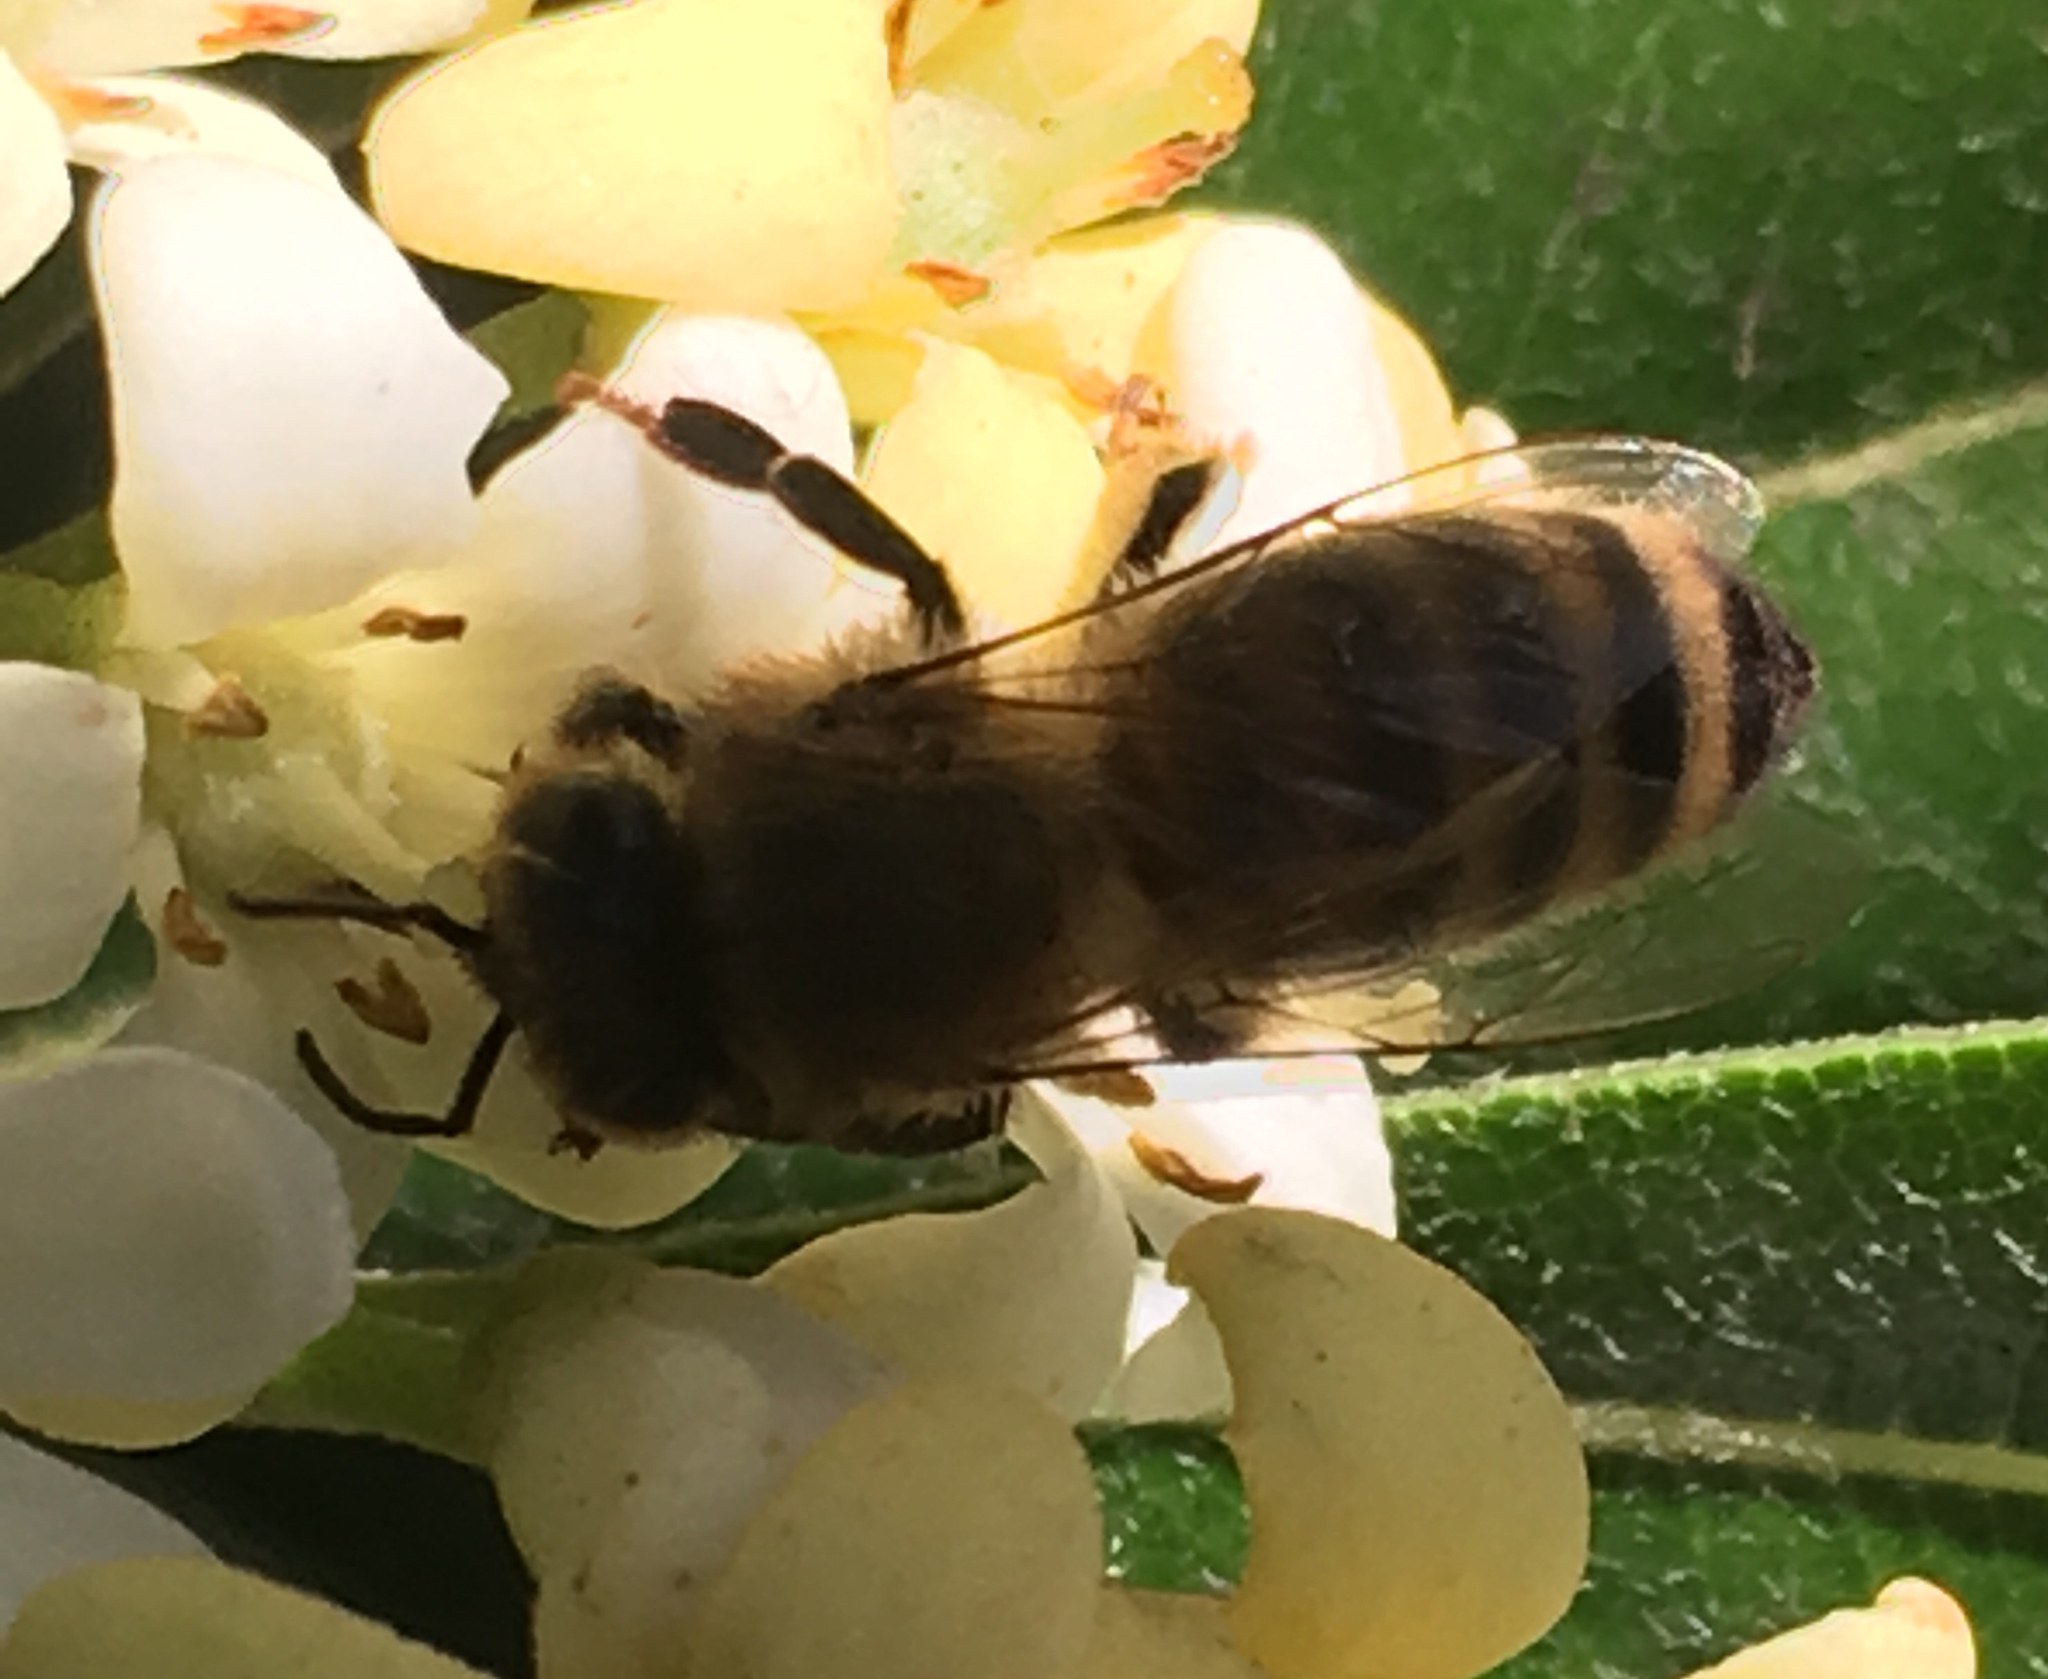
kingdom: Animalia
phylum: Arthropoda
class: Insecta
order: Hymenoptera
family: Apidae
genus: Apis
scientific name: Apis mellifera
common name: Honey bee
